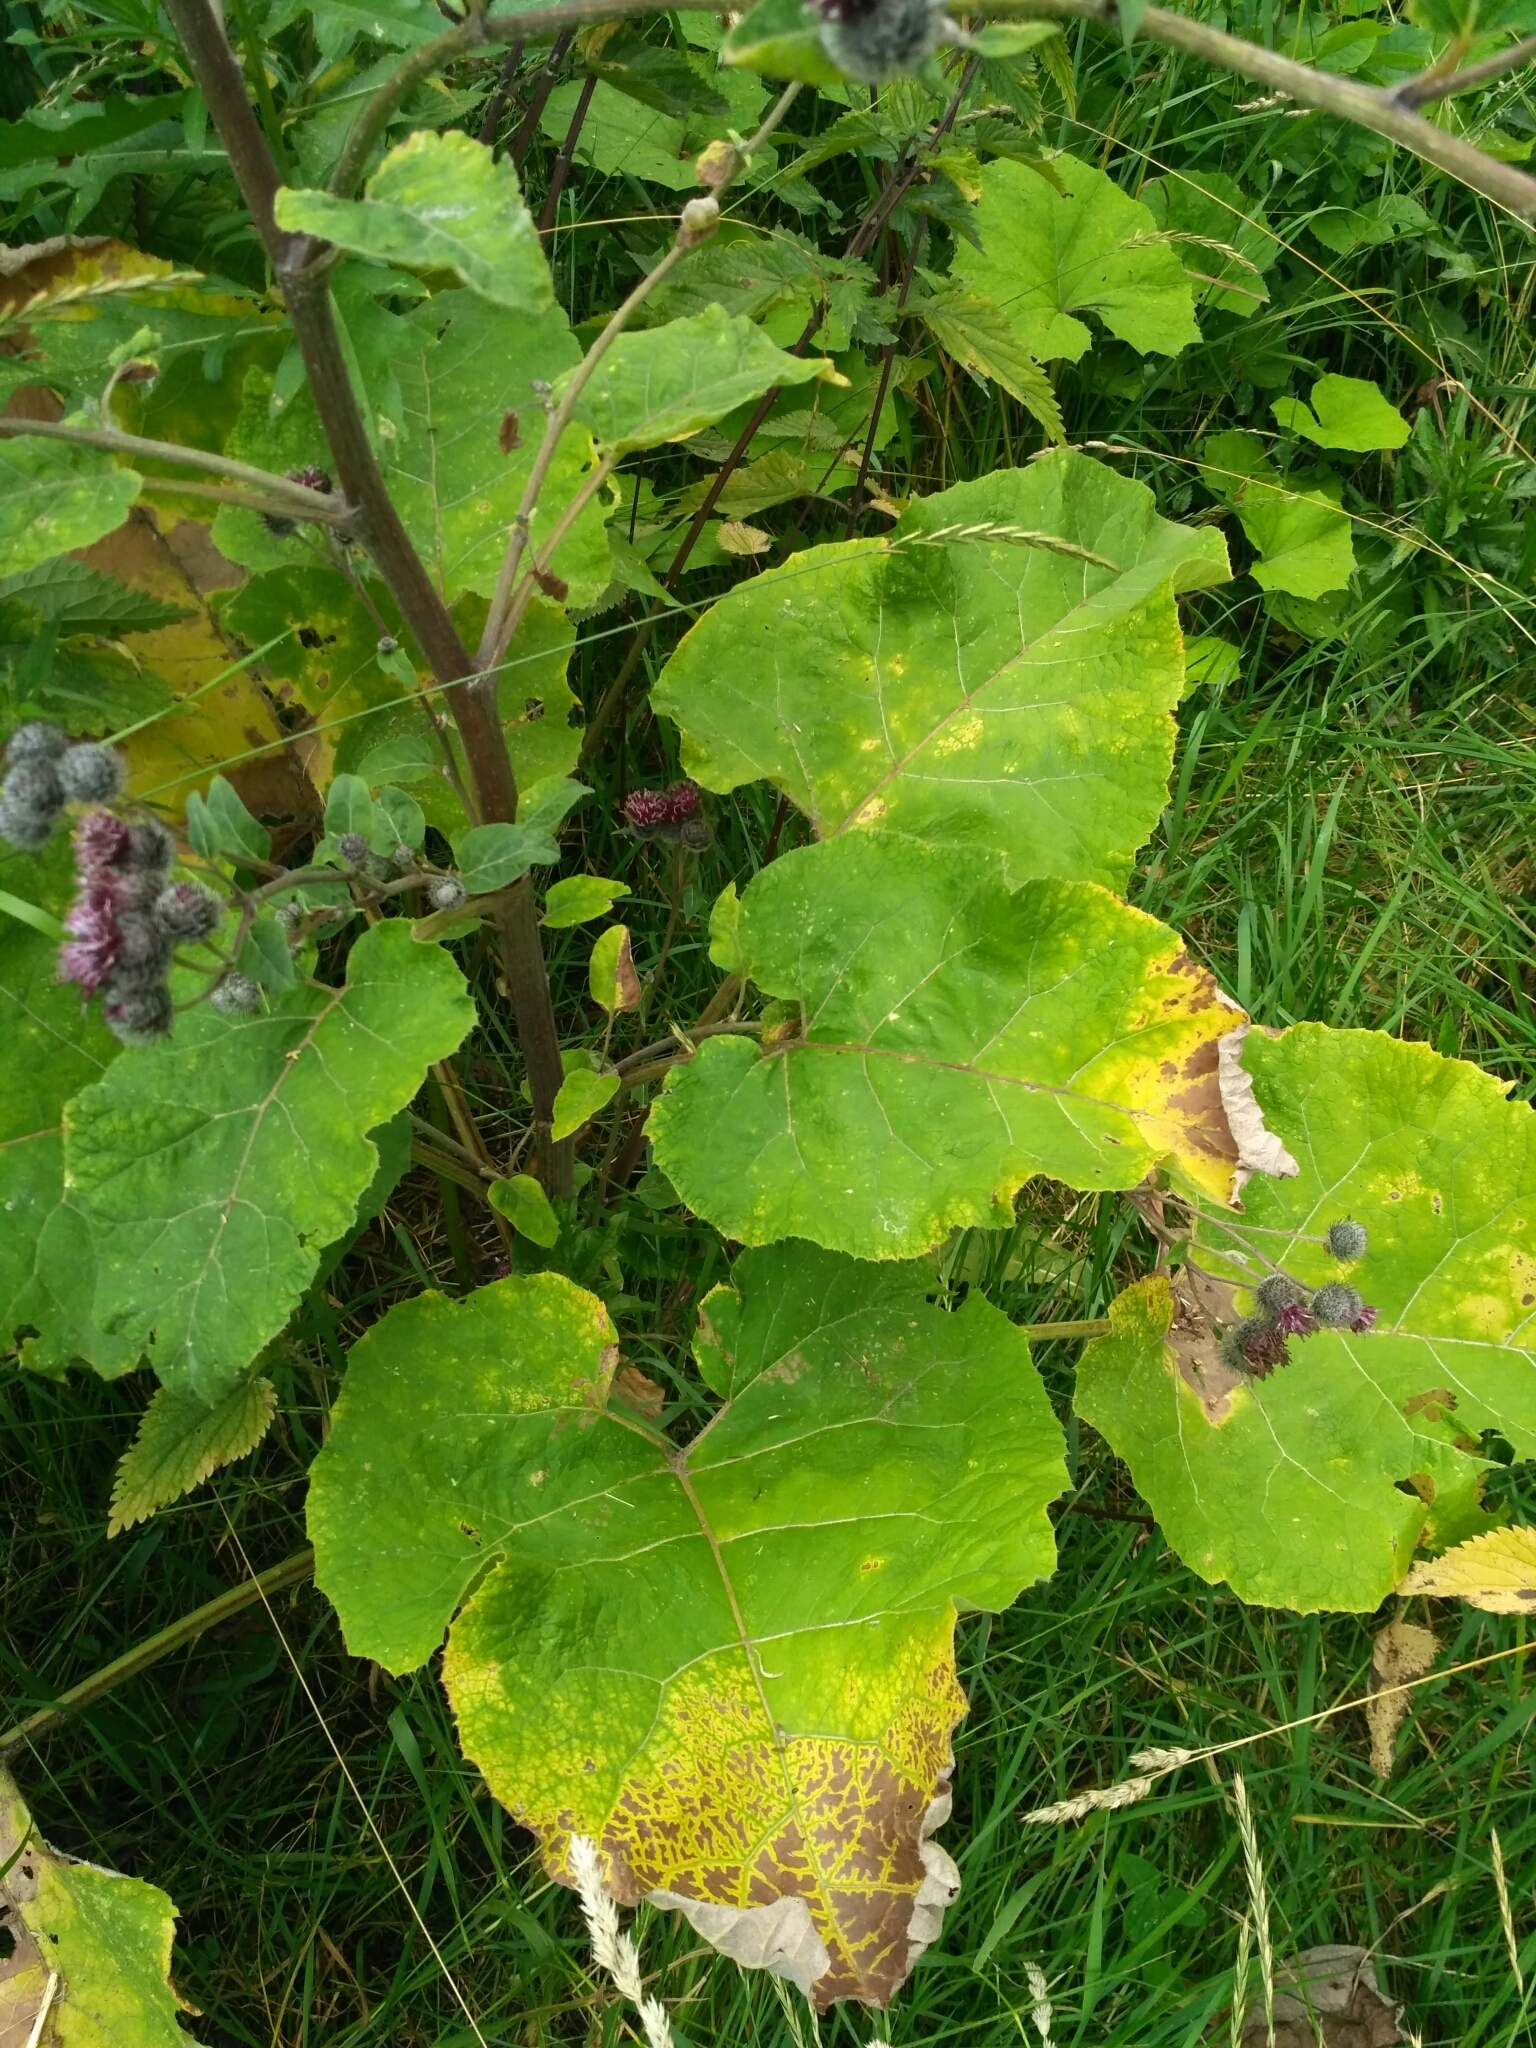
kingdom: Plantae
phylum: Tracheophyta
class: Magnoliopsida
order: Asterales
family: Asteraceae
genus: Arctium
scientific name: Arctium tomentosum
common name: Woolly burdock
